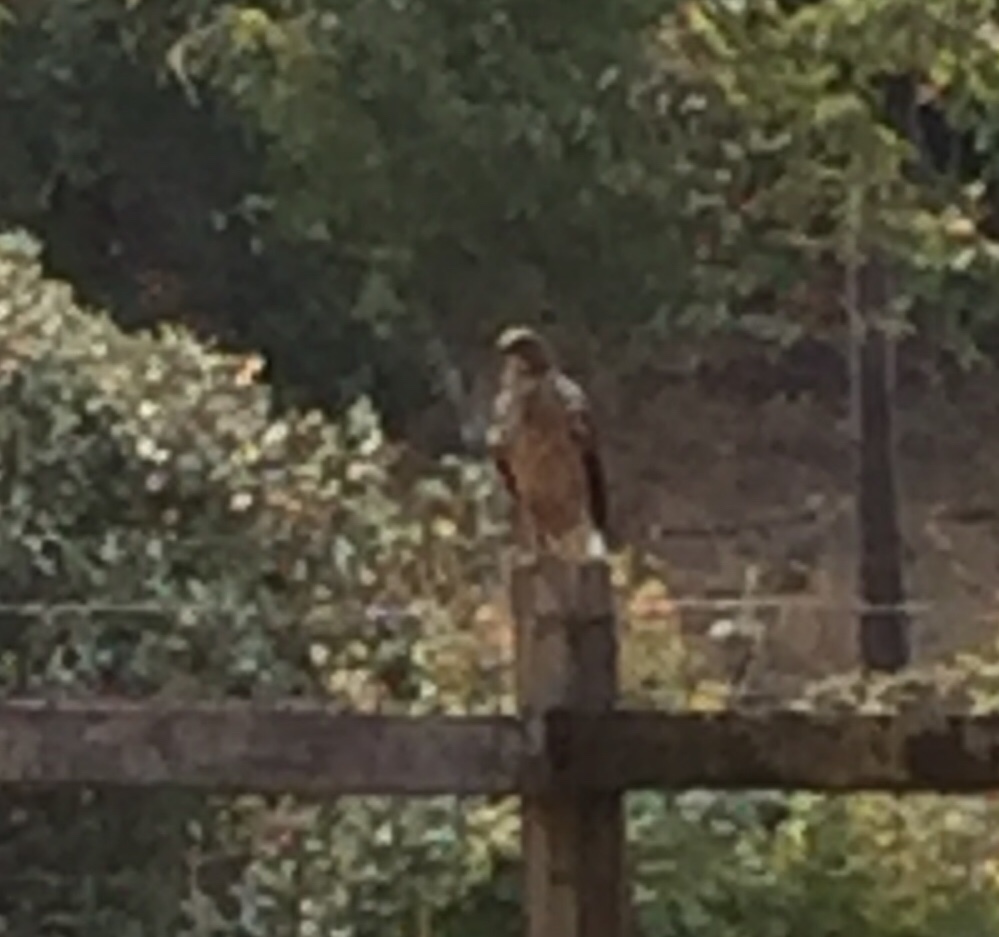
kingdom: Animalia
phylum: Chordata
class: Aves
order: Accipitriformes
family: Accipitridae
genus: Buteo
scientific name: Buteo lineatus
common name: Red-shouldered hawk
